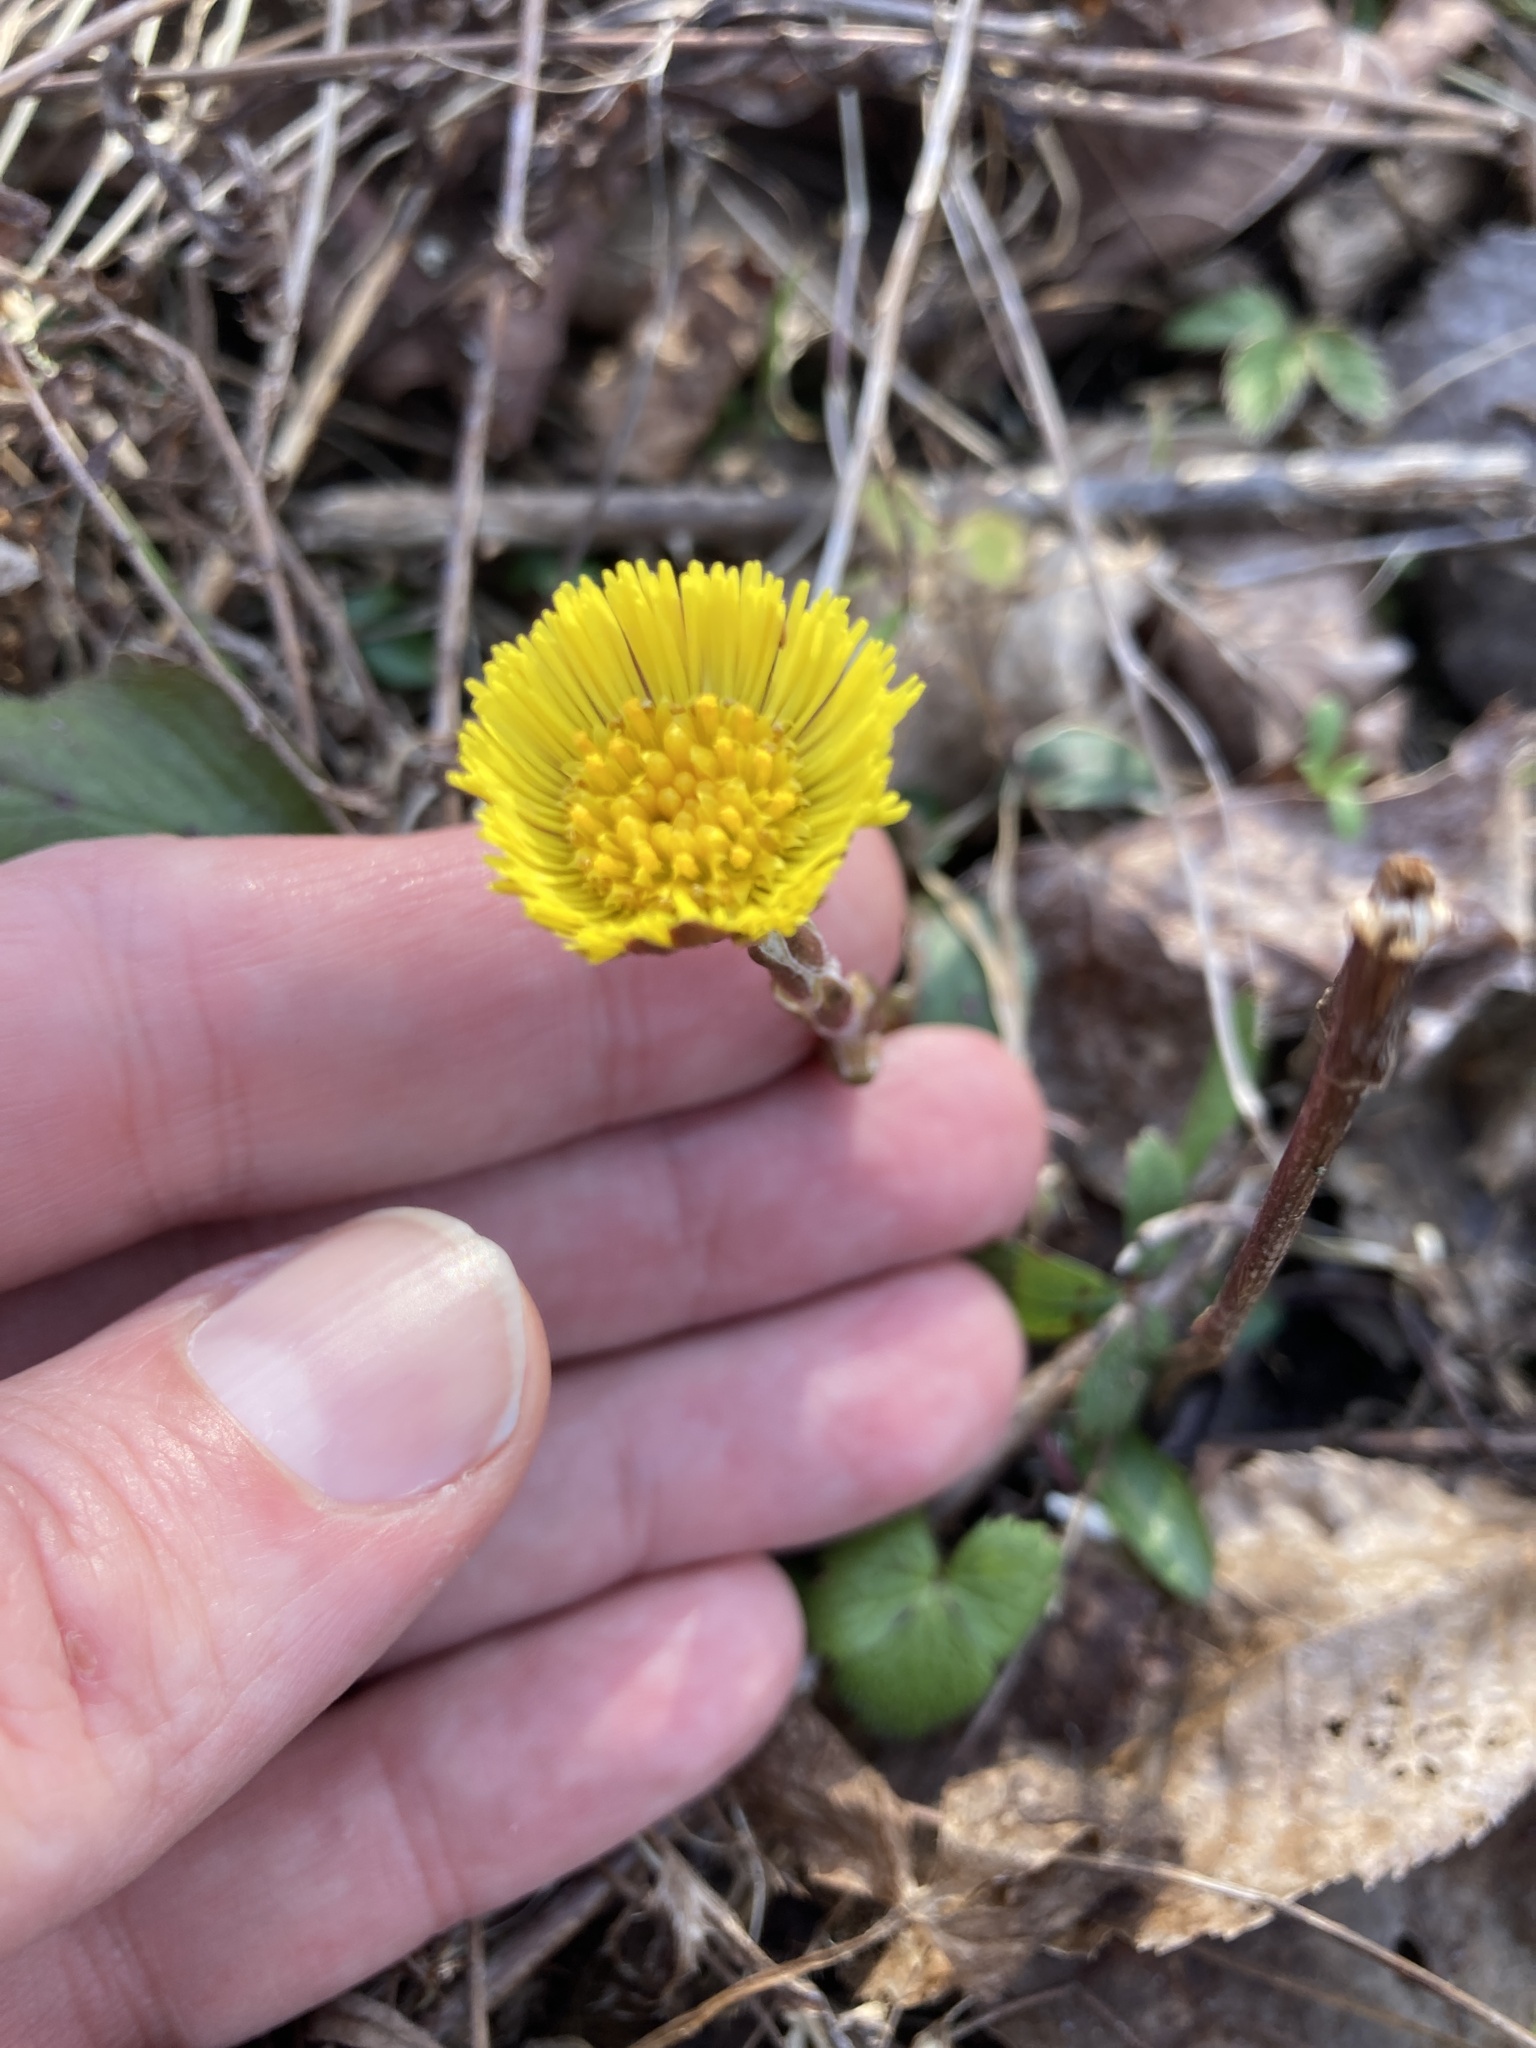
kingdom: Plantae
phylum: Tracheophyta
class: Magnoliopsida
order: Asterales
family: Asteraceae
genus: Tussilago
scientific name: Tussilago farfara
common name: Coltsfoot
